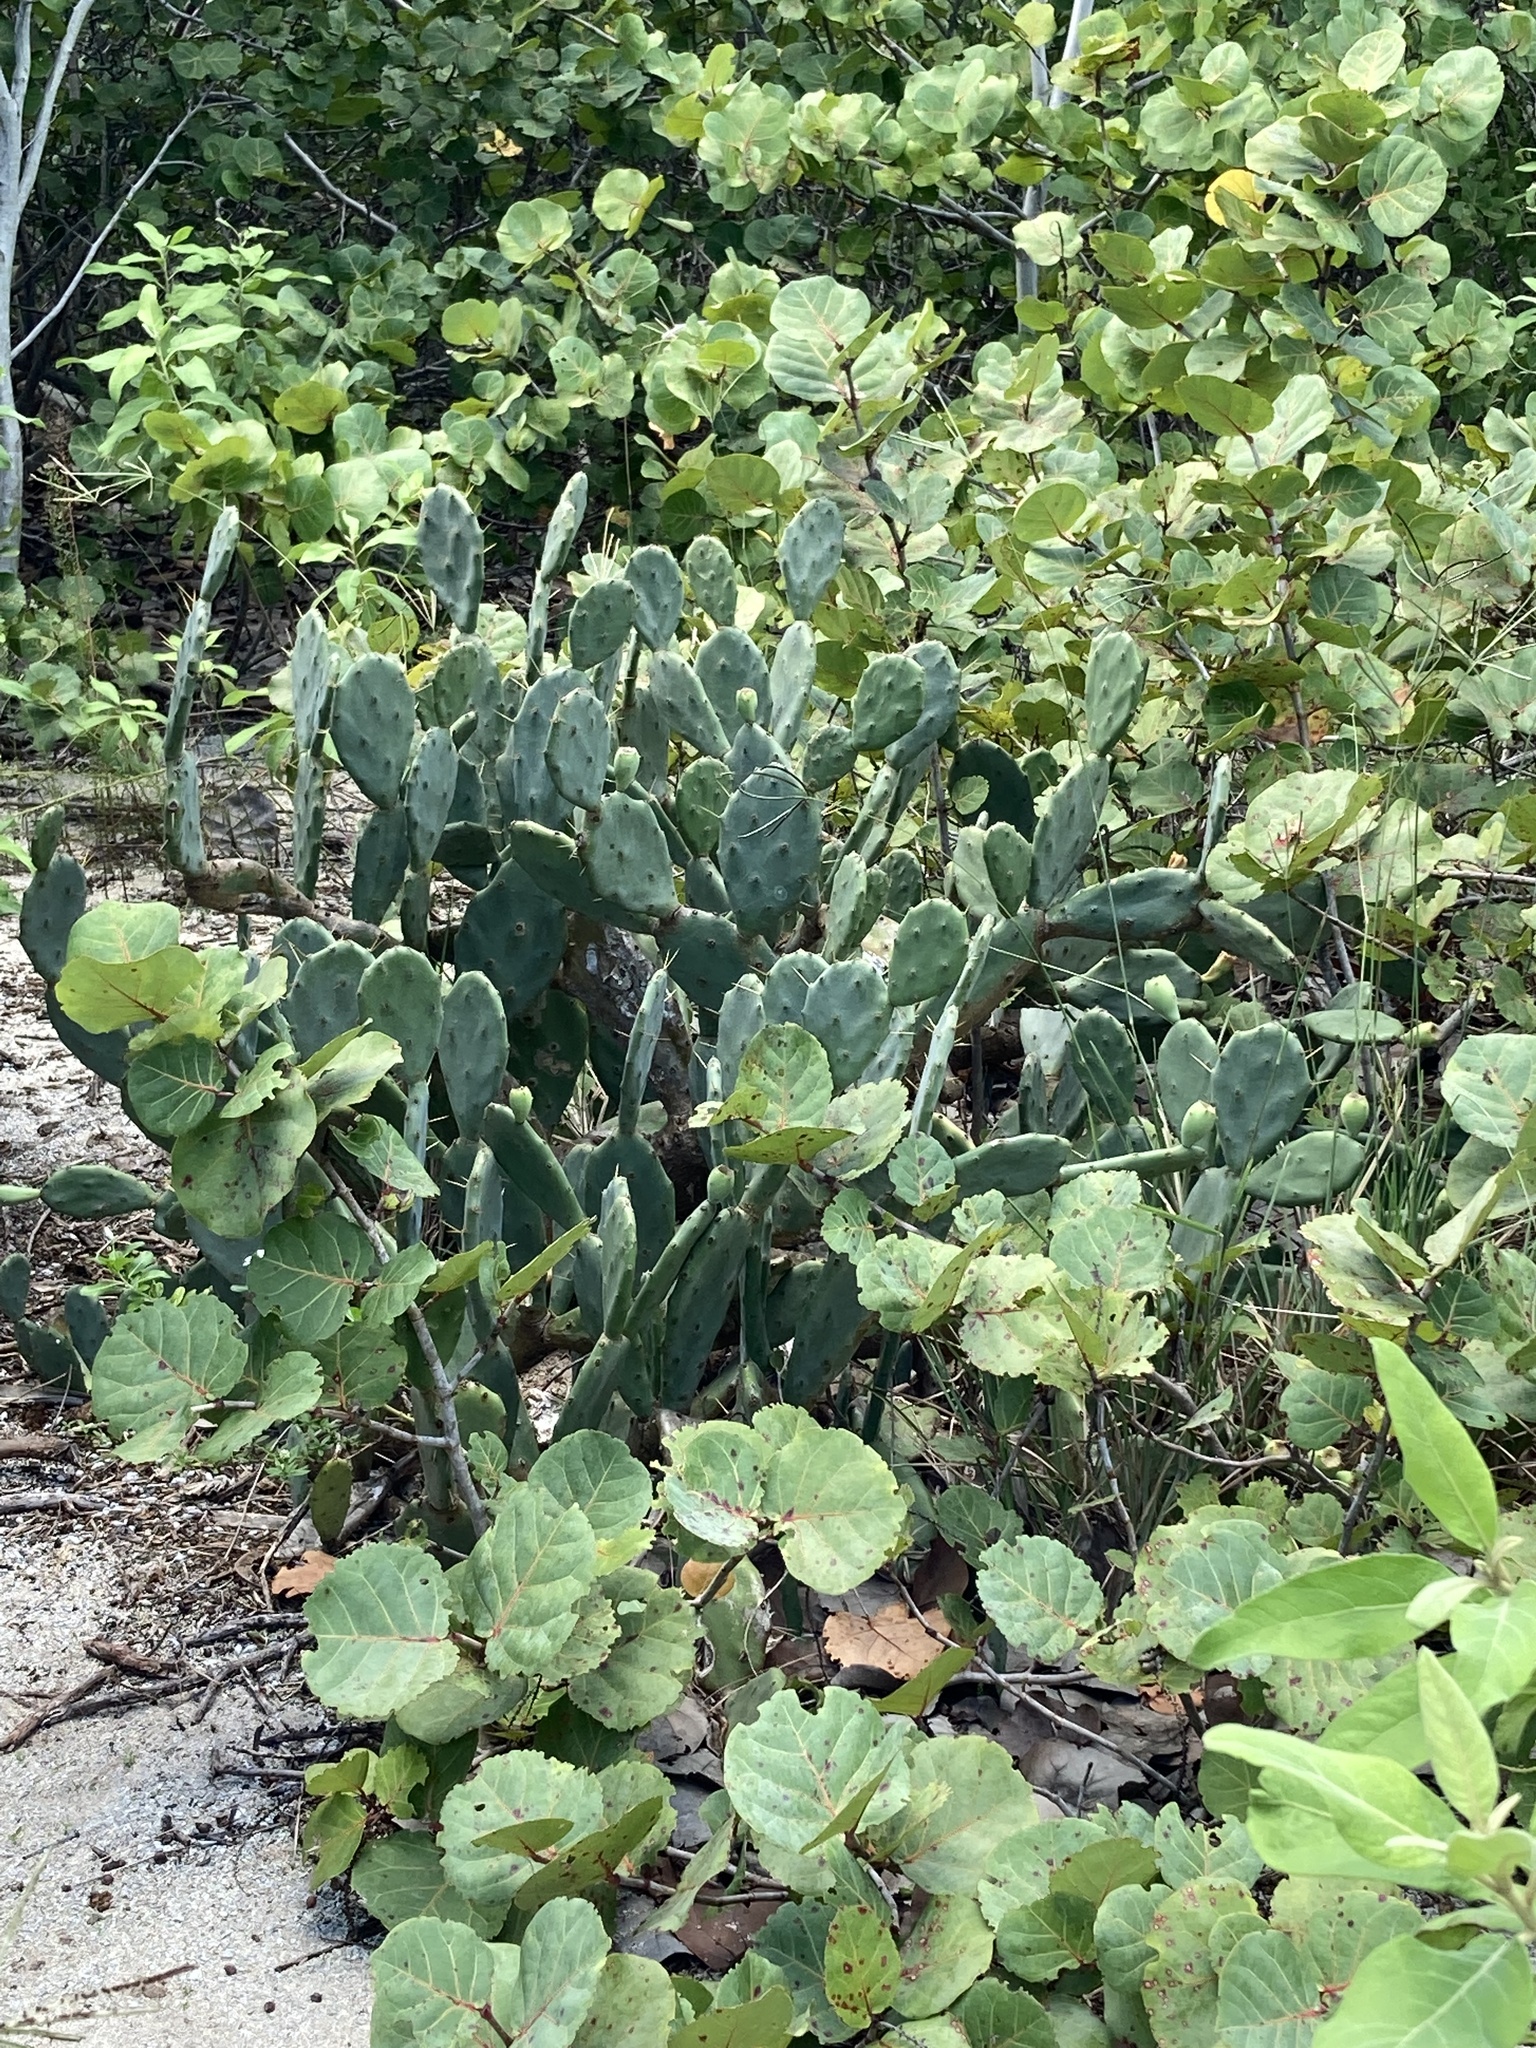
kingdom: Plantae
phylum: Tracheophyta
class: Magnoliopsida
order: Caryophyllales
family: Cactaceae
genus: Opuntia
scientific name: Opuntia stricta
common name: Erect pricklypear
